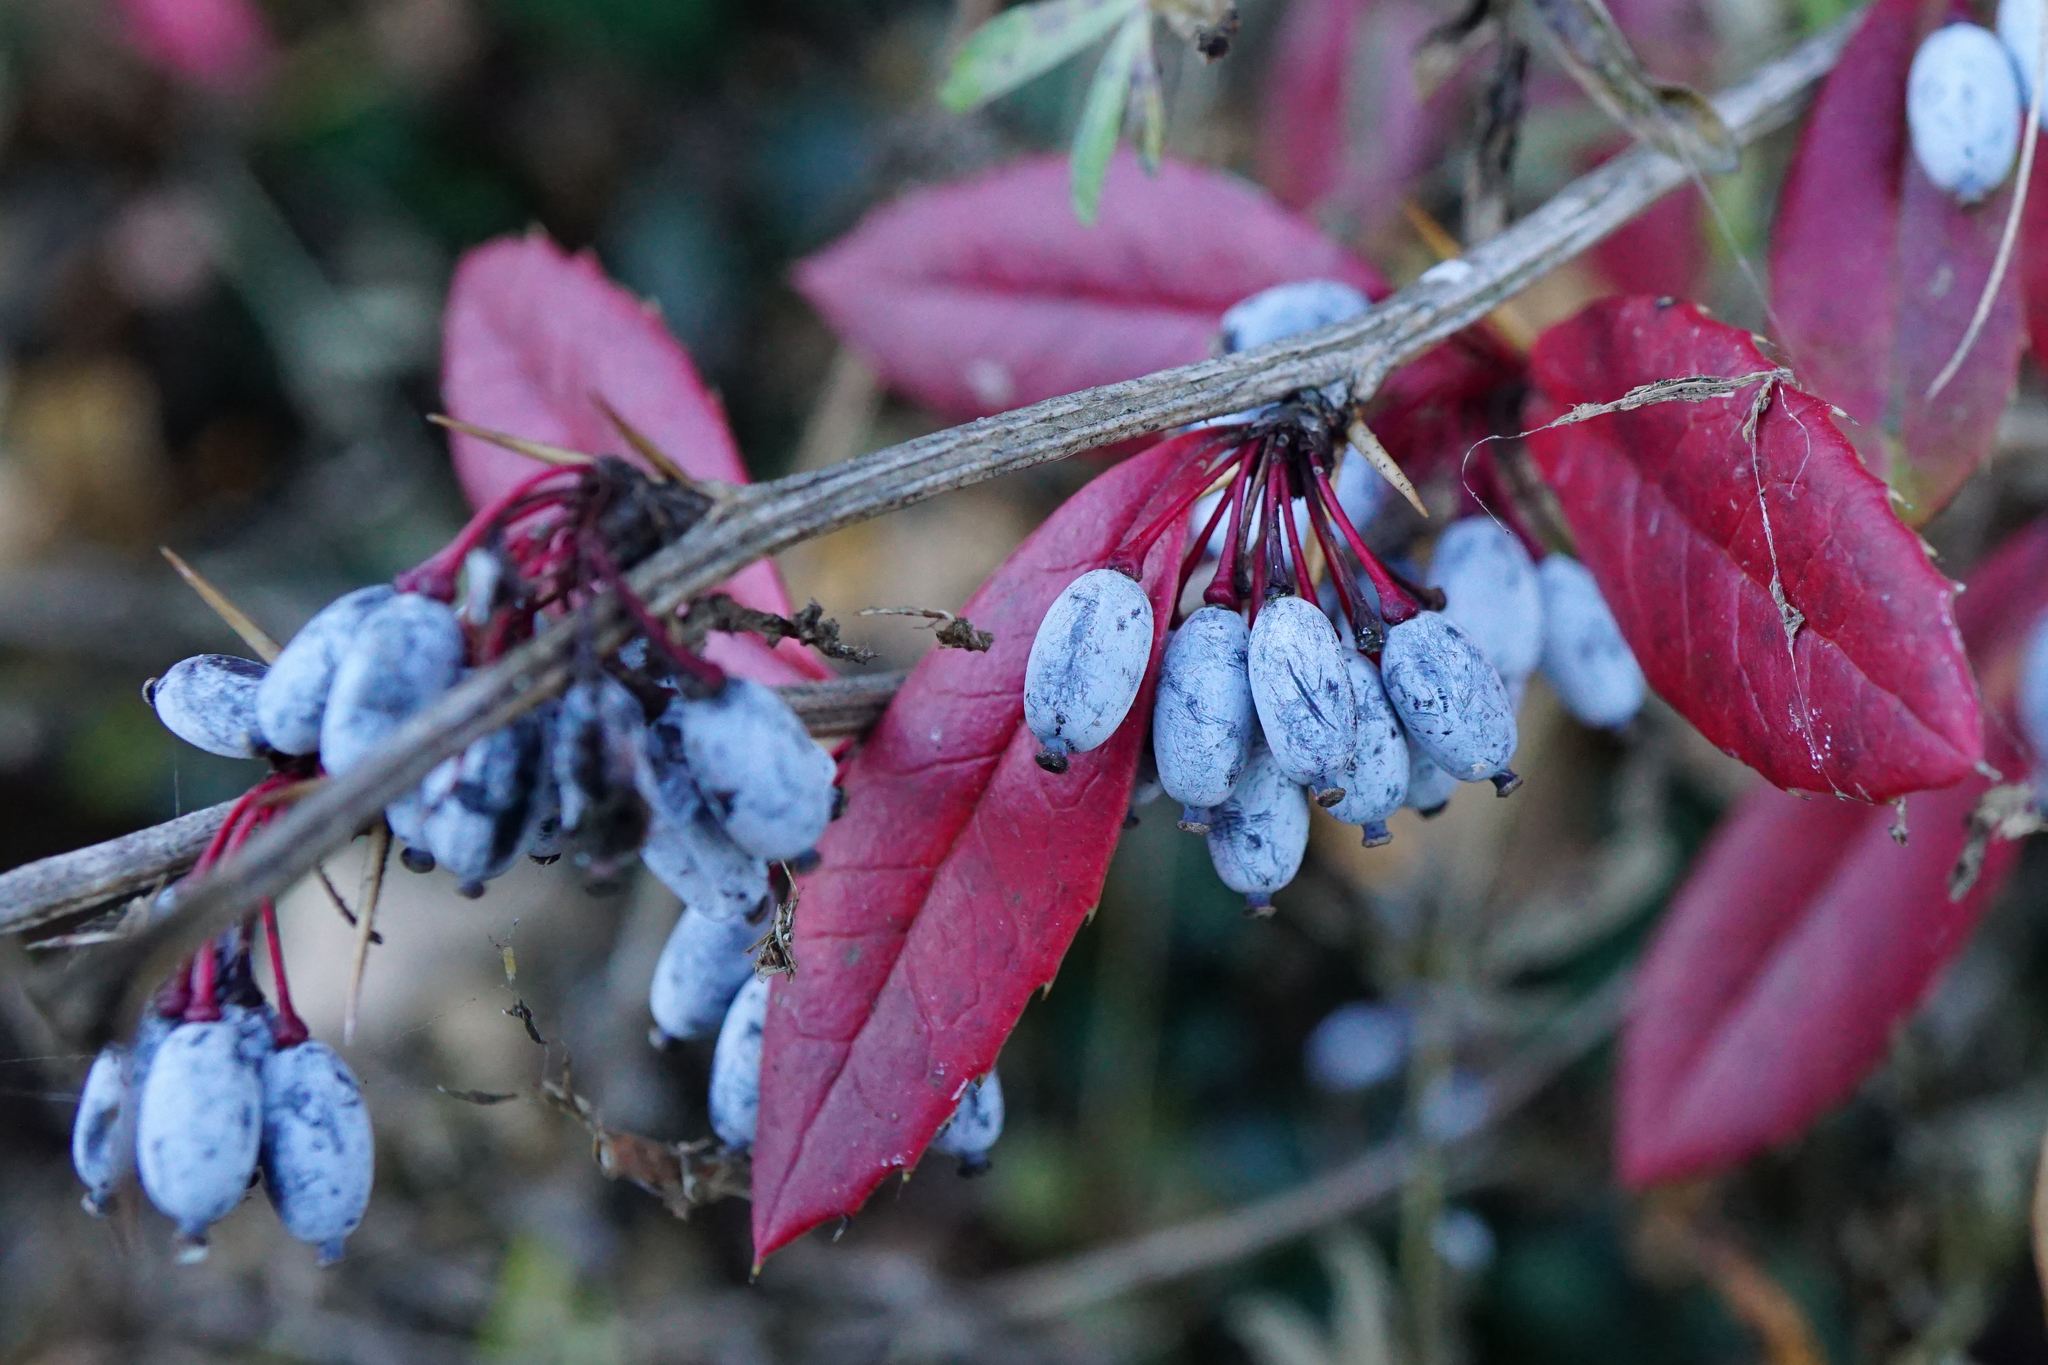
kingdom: Plantae
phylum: Tracheophyta
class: Magnoliopsida
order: Ranunculales
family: Berberidaceae
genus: Berberis
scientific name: Berberis julianae
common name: Wintergreen barberry
